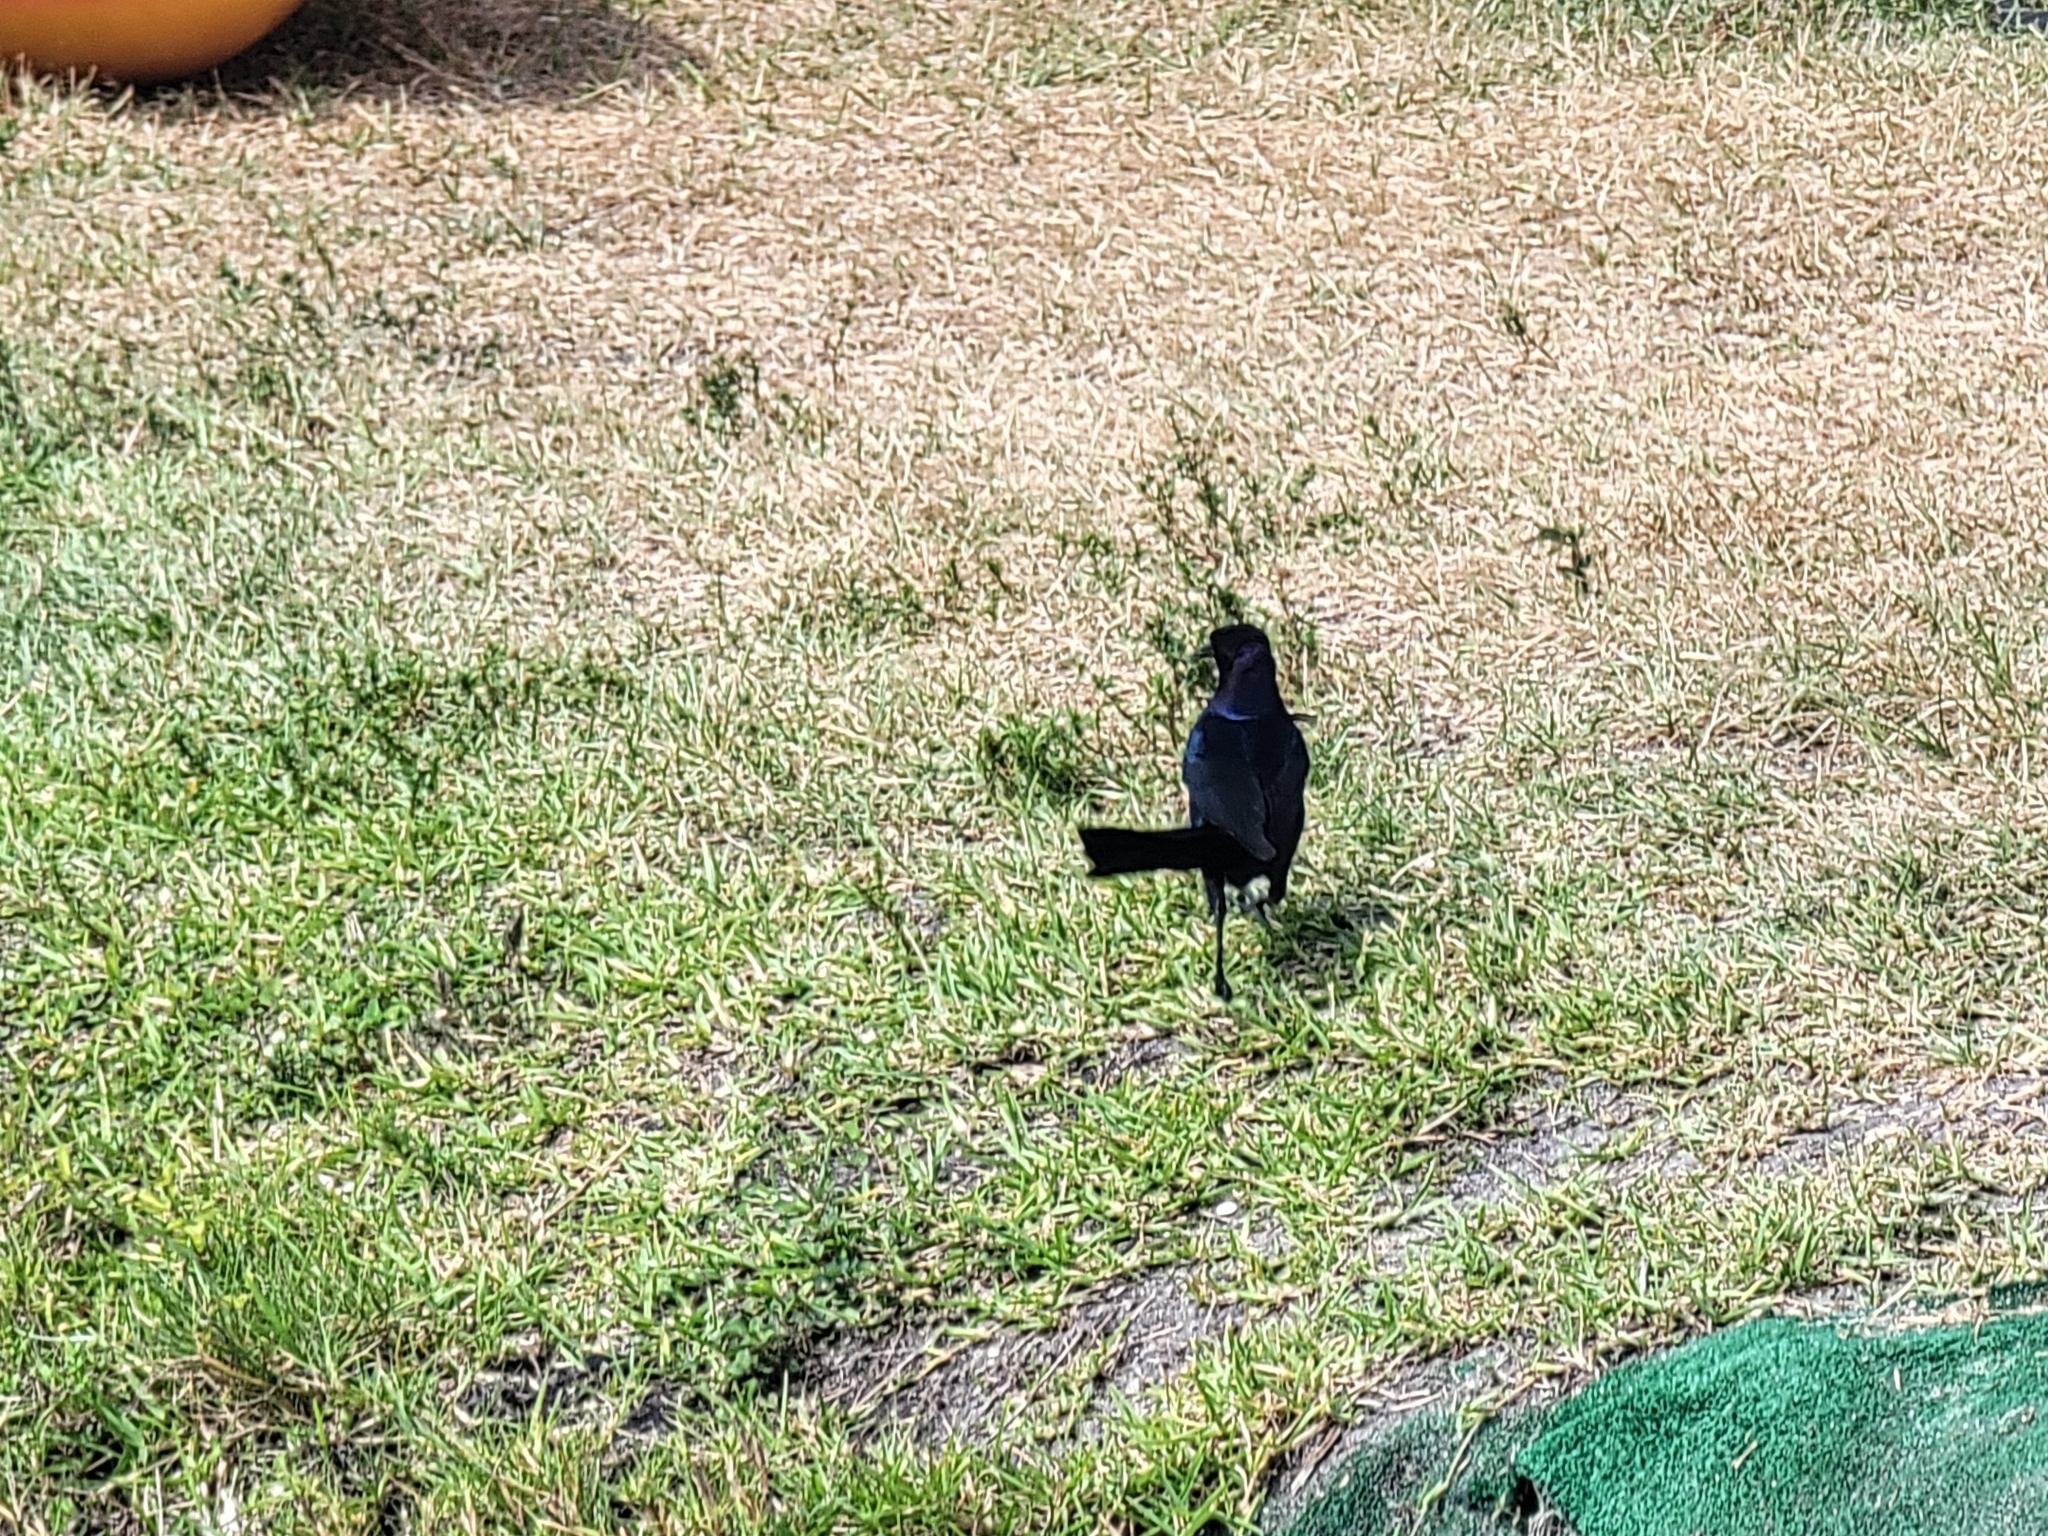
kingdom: Animalia
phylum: Chordata
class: Aves
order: Passeriformes
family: Icteridae
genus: Quiscalus
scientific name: Quiscalus major
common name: Boat-tailed grackle
